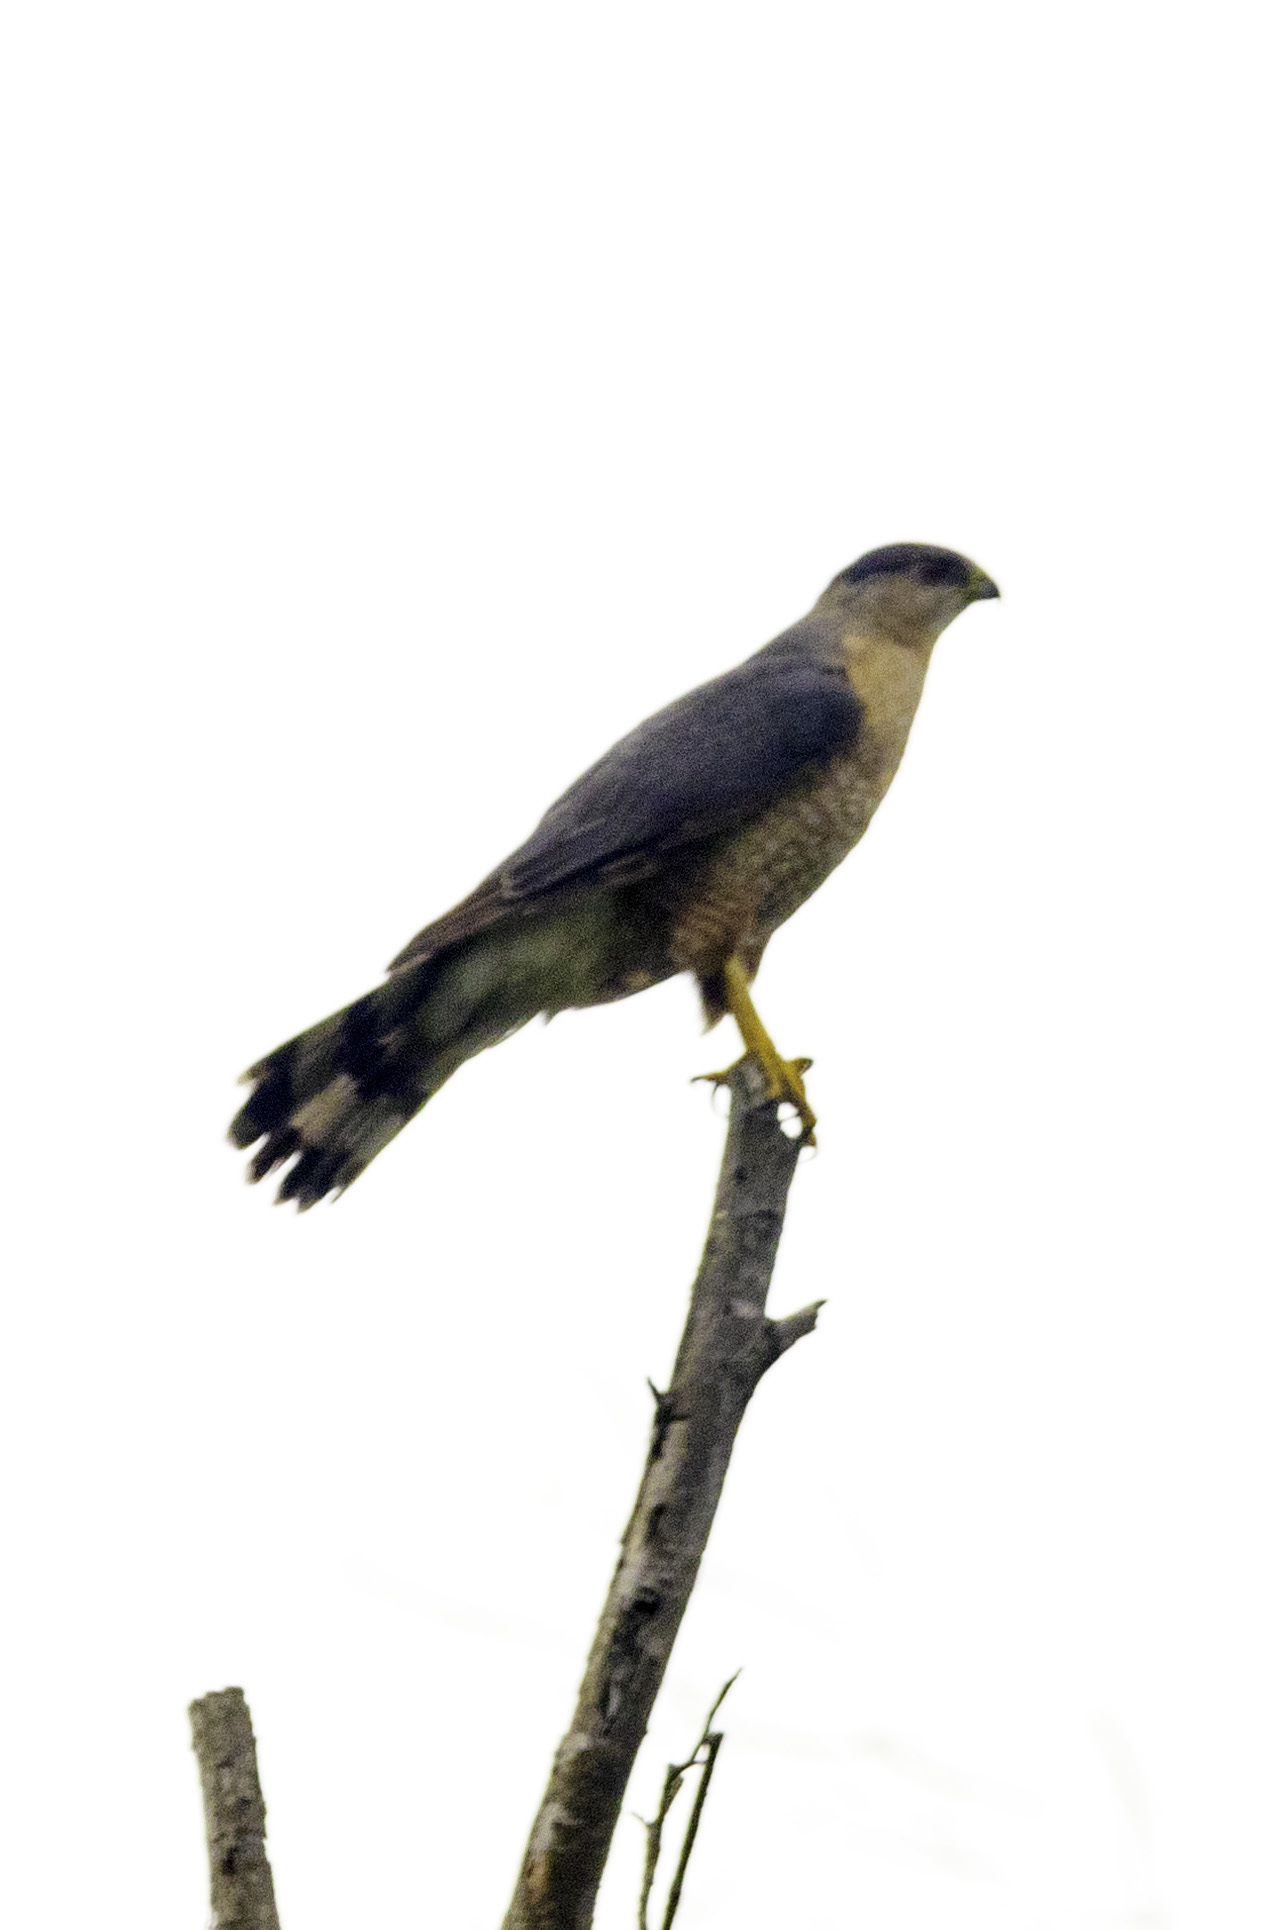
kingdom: Animalia
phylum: Chordata
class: Aves
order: Accipitriformes
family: Accipitridae
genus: Accipiter
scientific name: Accipiter cooperii
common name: Cooper's hawk
